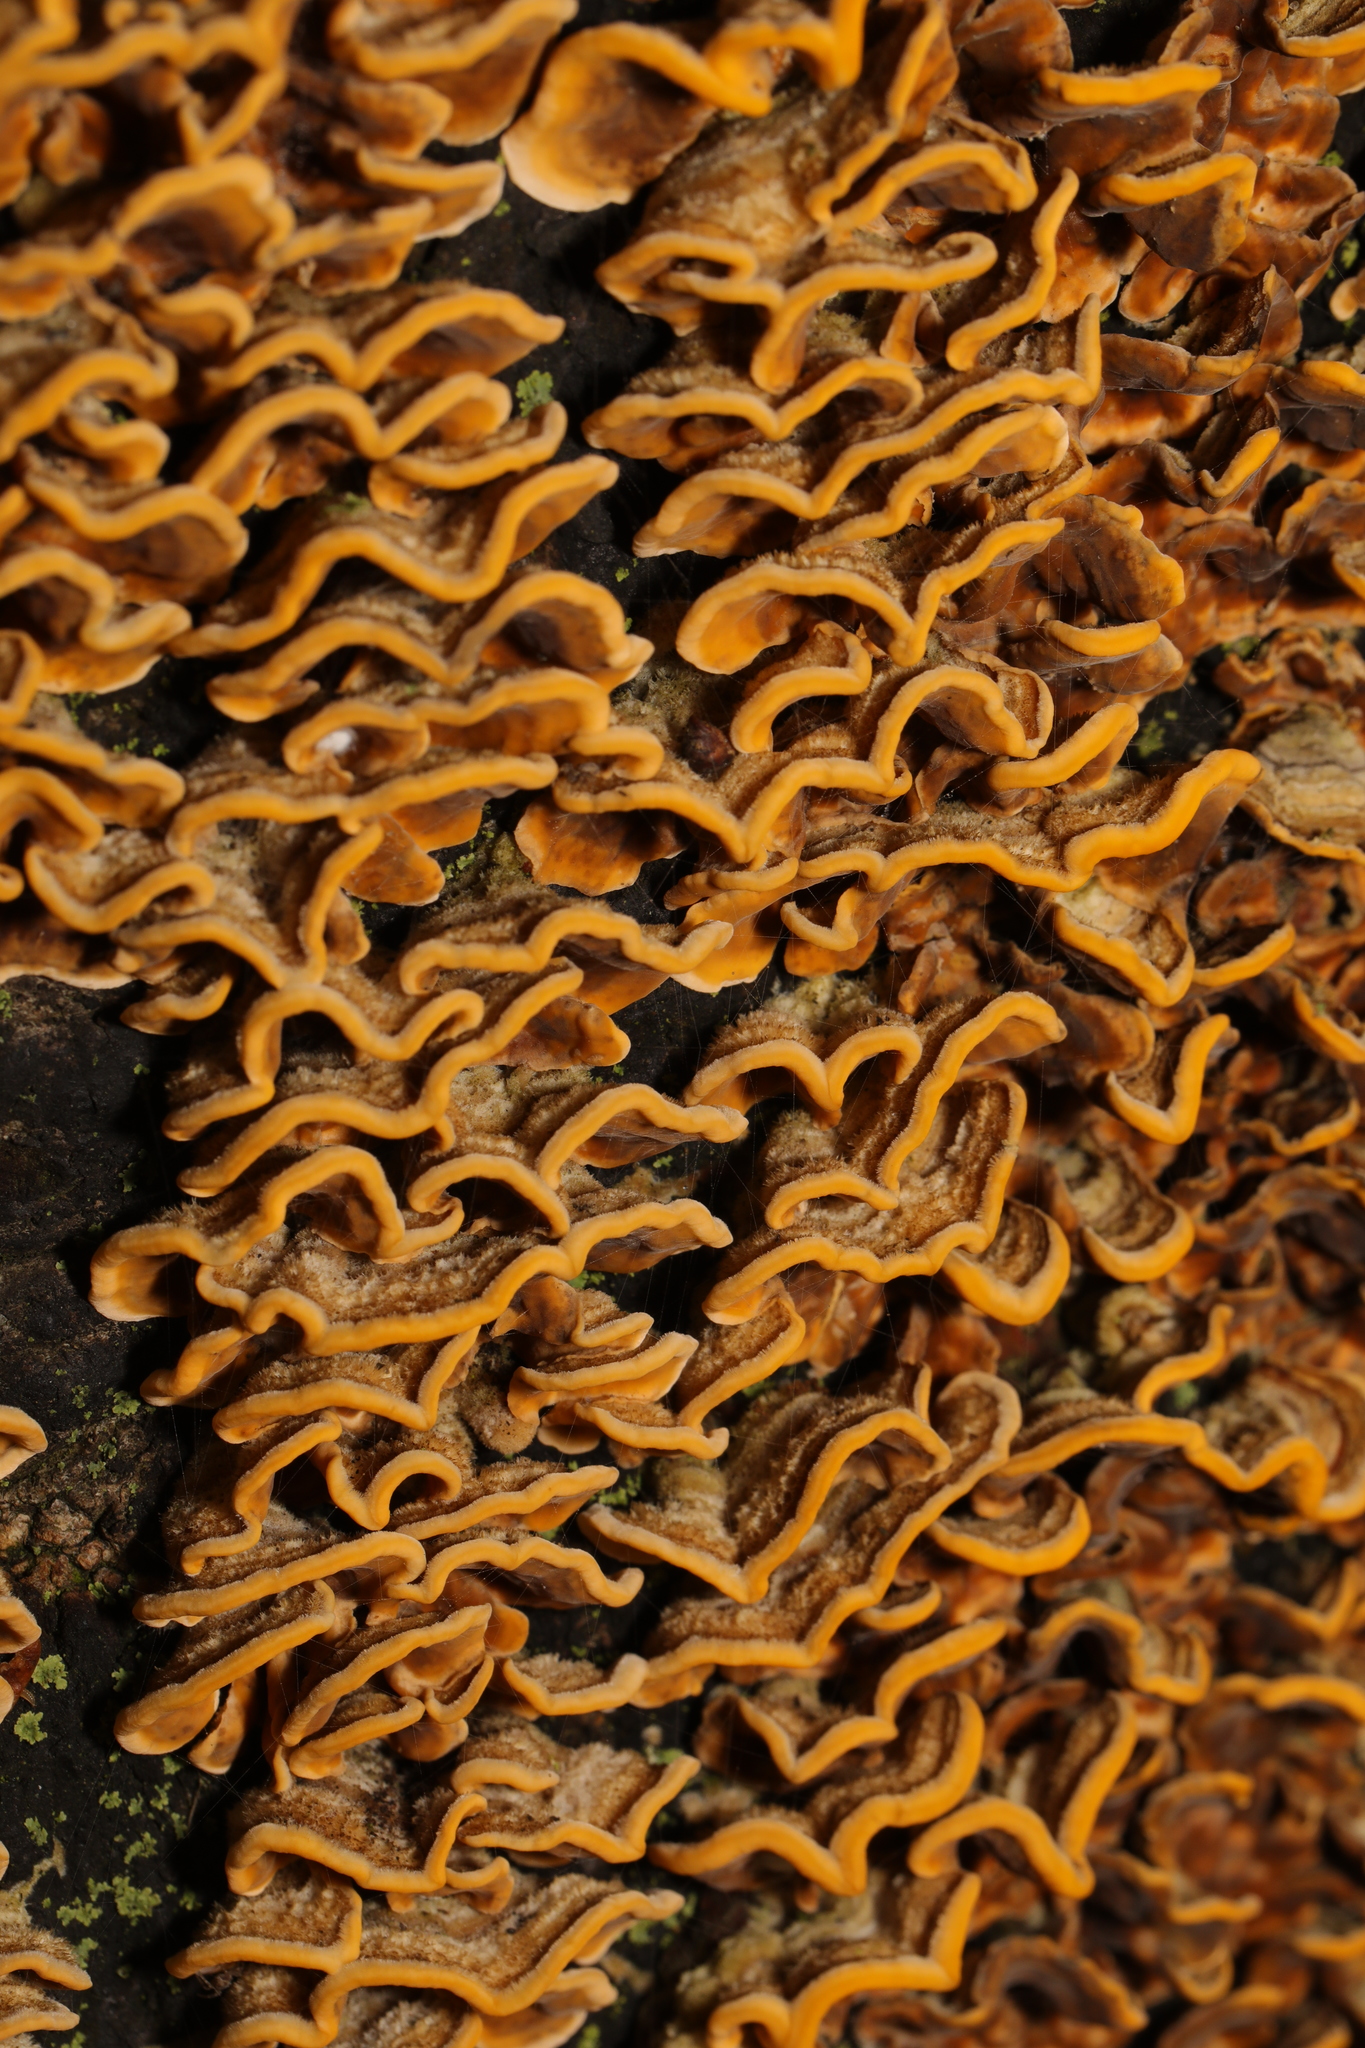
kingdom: Fungi
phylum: Basidiomycota
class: Agaricomycetes
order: Russulales
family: Stereaceae
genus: Stereum
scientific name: Stereum hirsutum
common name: Hairy curtain crust
